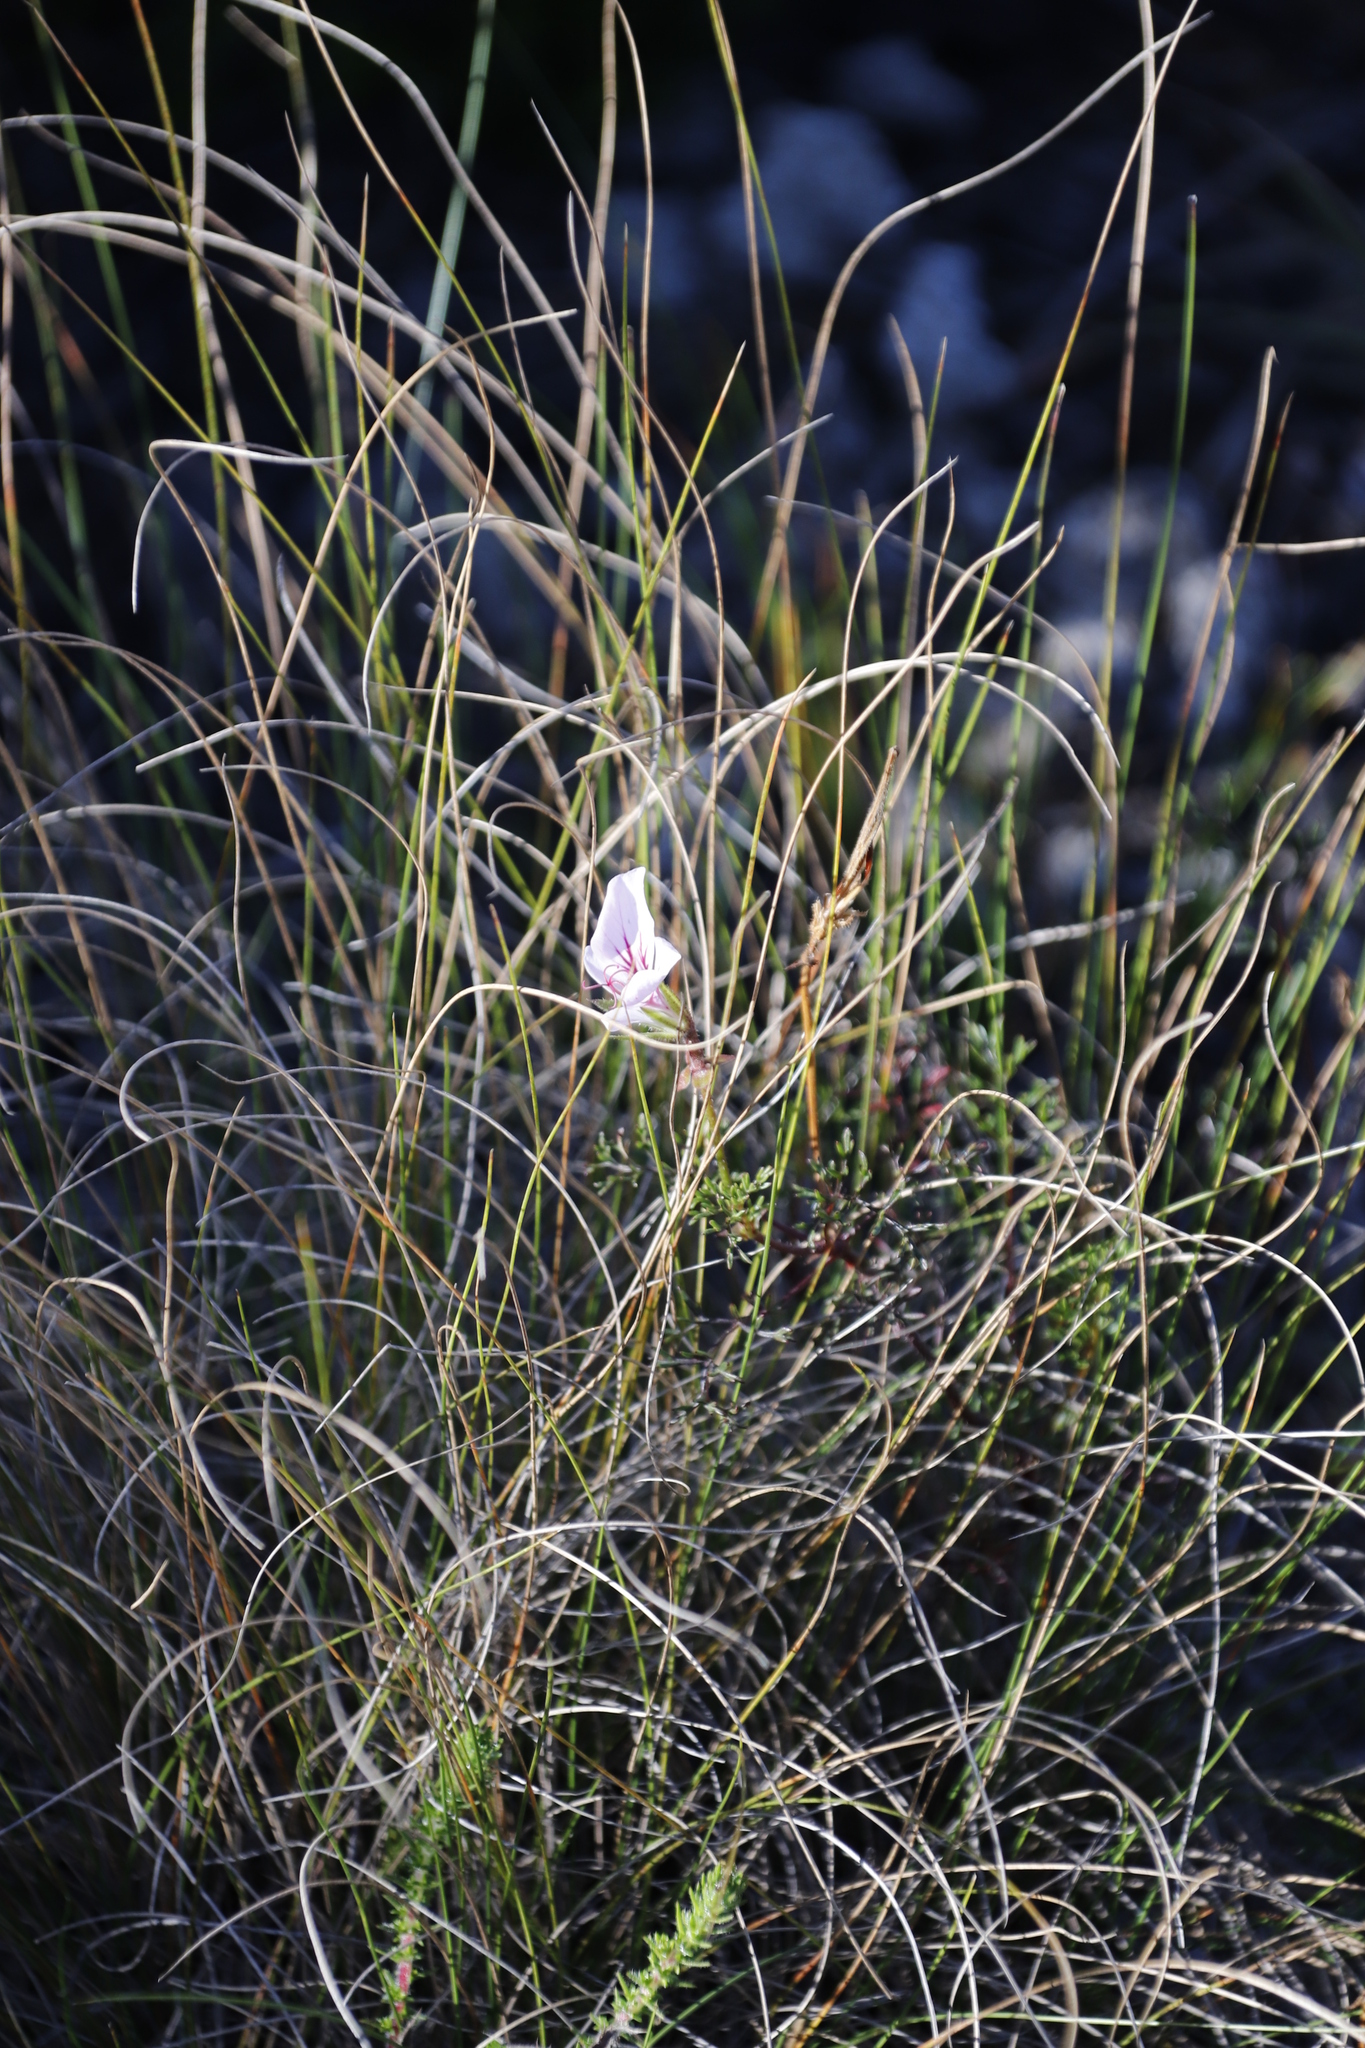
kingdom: Plantae
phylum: Tracheophyta
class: Magnoliopsida
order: Geraniales
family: Geraniaceae
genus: Pelargonium
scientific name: Pelargonium myrrhifolium
